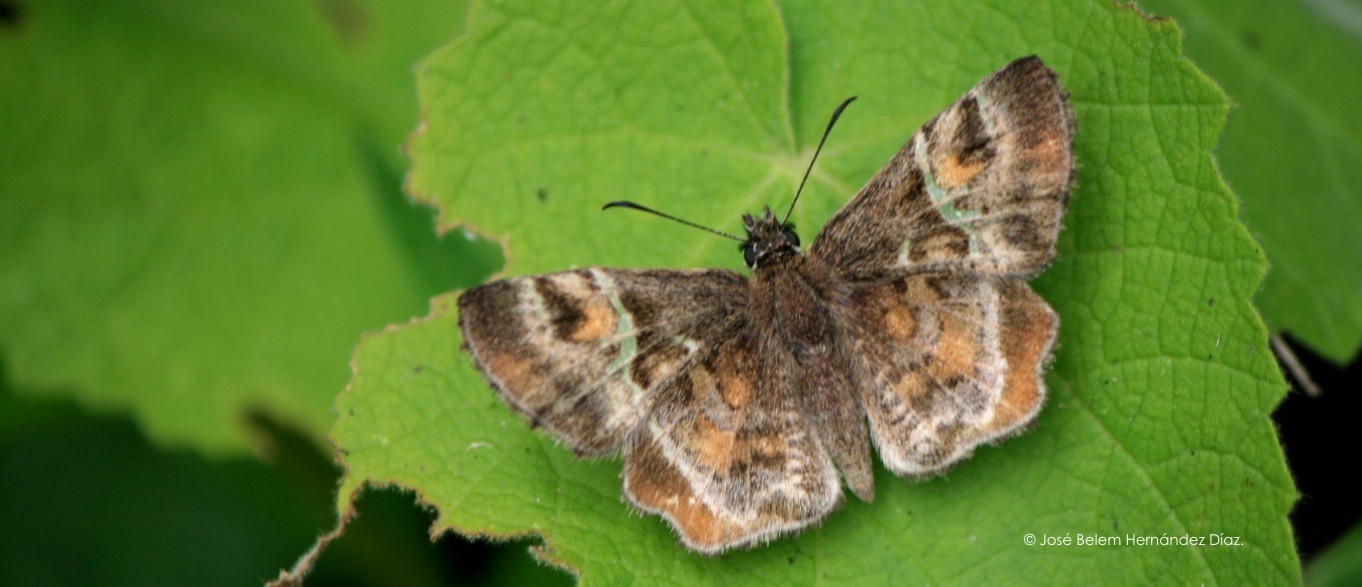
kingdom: Animalia
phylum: Arthropoda
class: Insecta
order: Lepidoptera
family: Hesperiidae
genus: Systasea
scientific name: Systasea pulverulenta
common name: Texas powdered skipper
